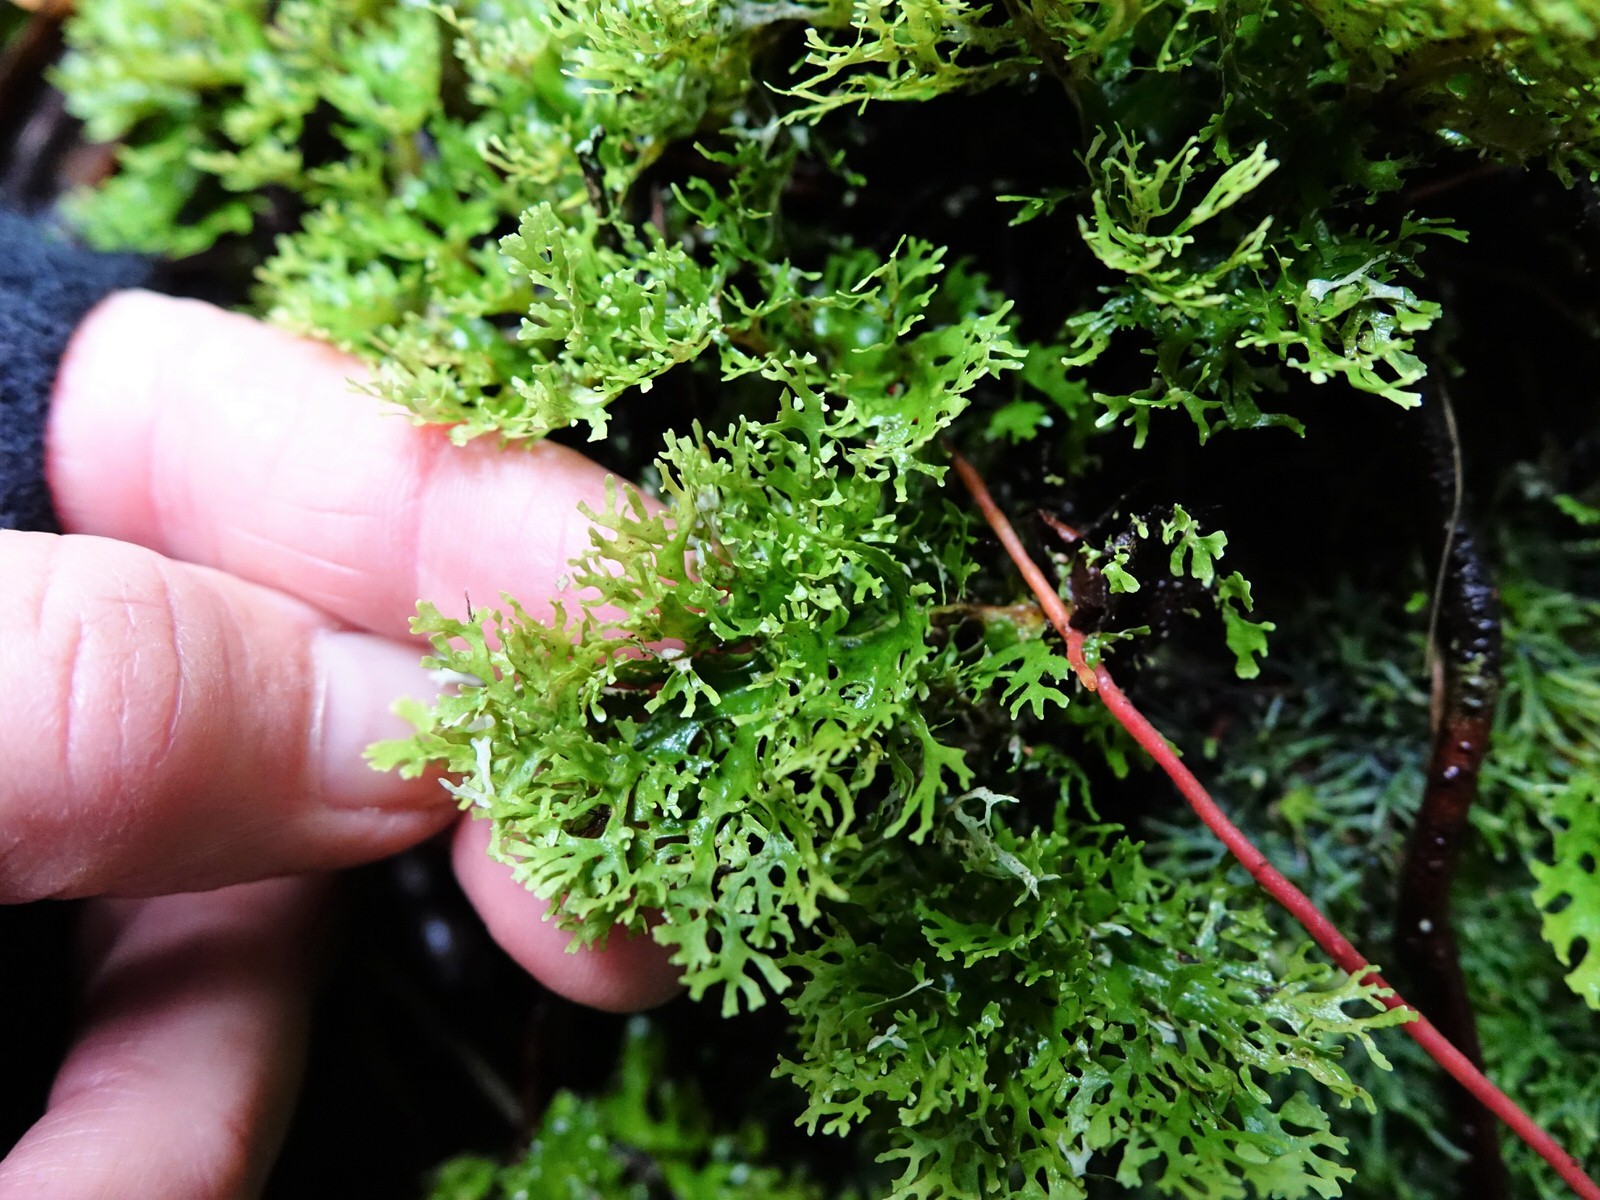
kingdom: Fungi
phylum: Ascomycota
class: Lecanoromycetes
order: Peltigerales
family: Lobariaceae
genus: Sticta
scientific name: Sticta
